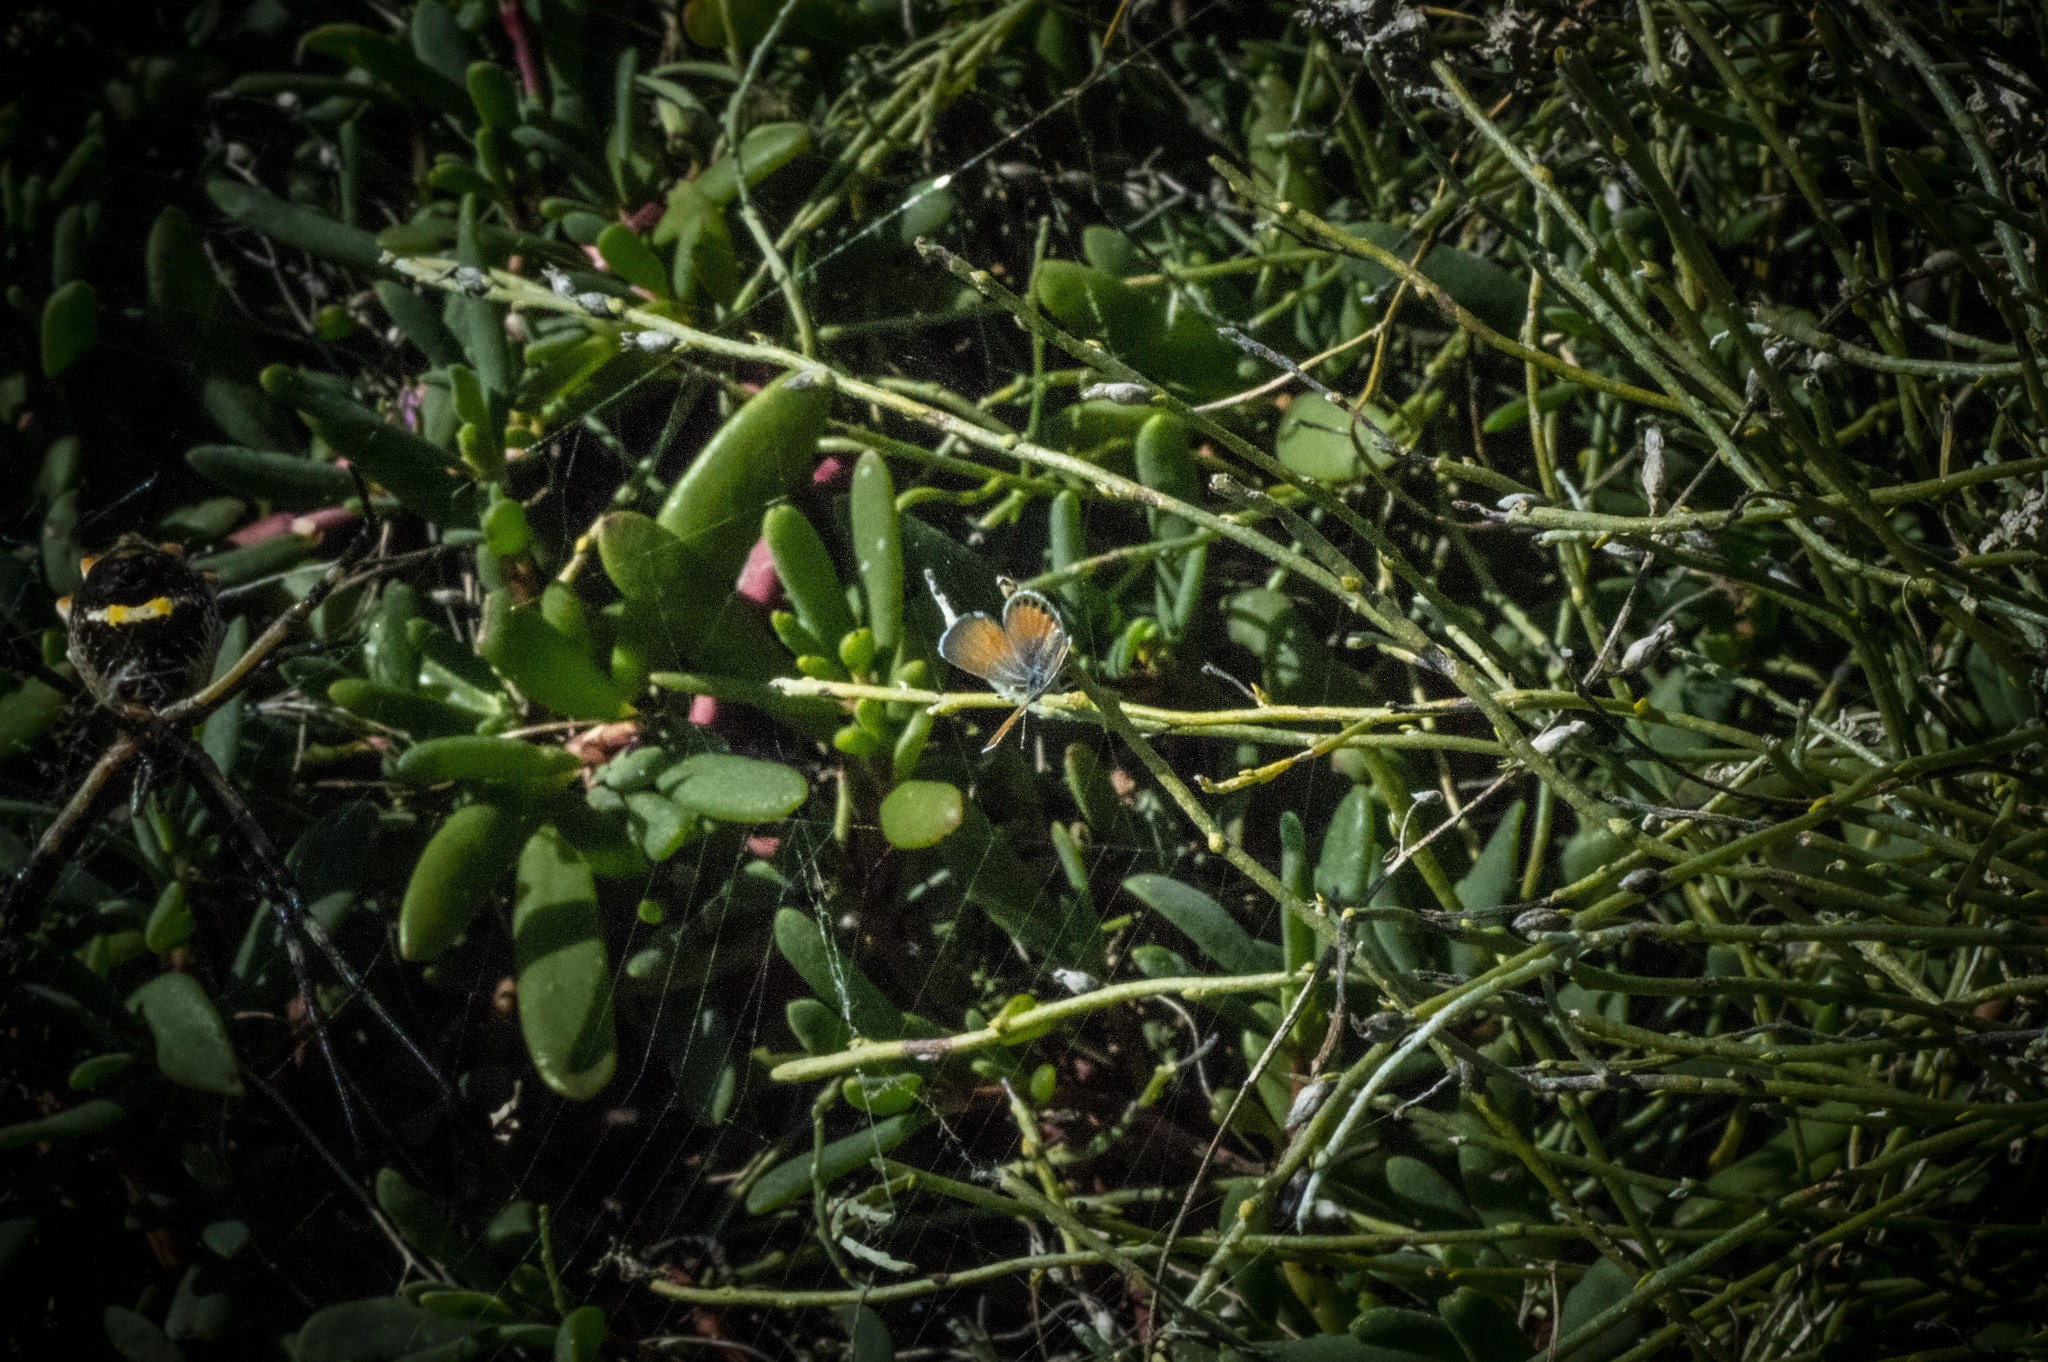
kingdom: Animalia
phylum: Arthropoda
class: Insecta
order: Lepidoptera
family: Lycaenidae
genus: Brephidium
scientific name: Brephidium exilis
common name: Pygmy blue
